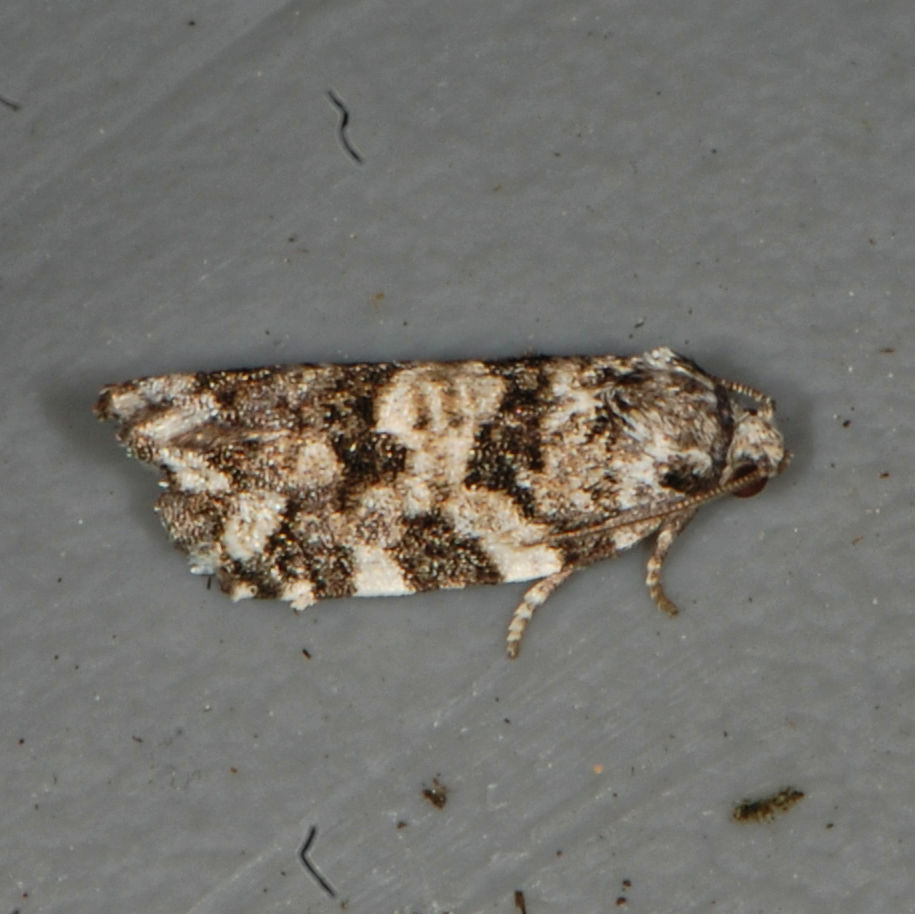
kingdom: Animalia
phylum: Arthropoda
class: Insecta
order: Lepidoptera
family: Tortricidae
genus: Archips
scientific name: Archips packardiana
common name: Spring spruce needle moth
